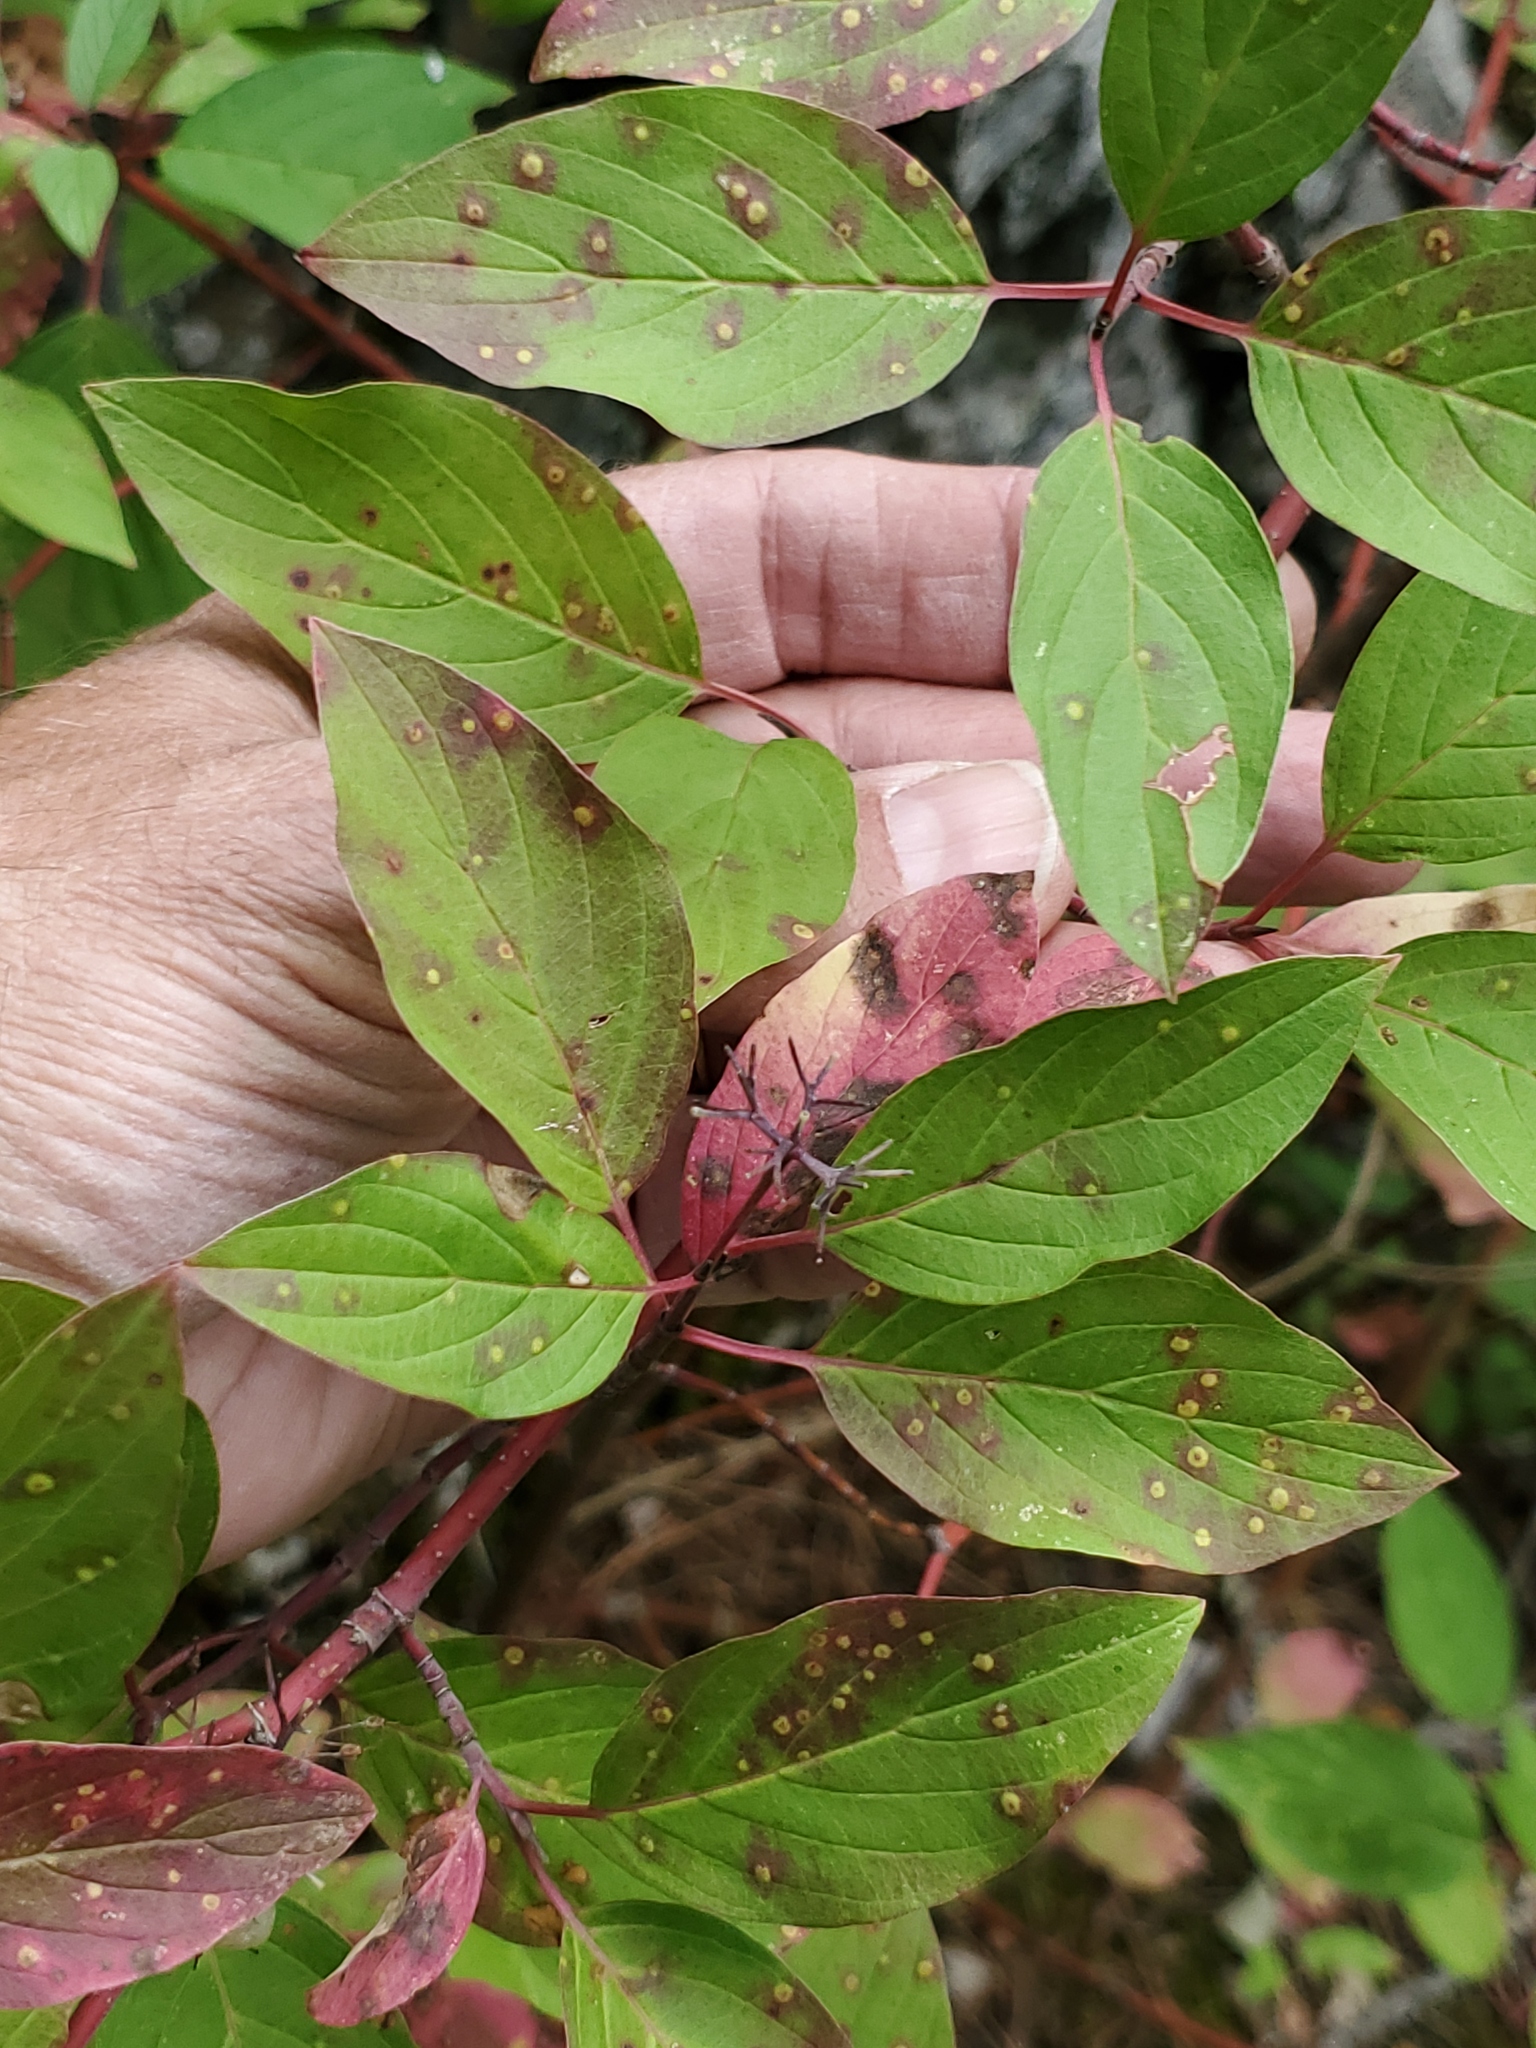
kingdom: Plantae
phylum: Tracheophyta
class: Magnoliopsida
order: Cornales
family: Cornaceae
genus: Cornus
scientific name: Cornus sericea
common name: Red-osier dogwood
